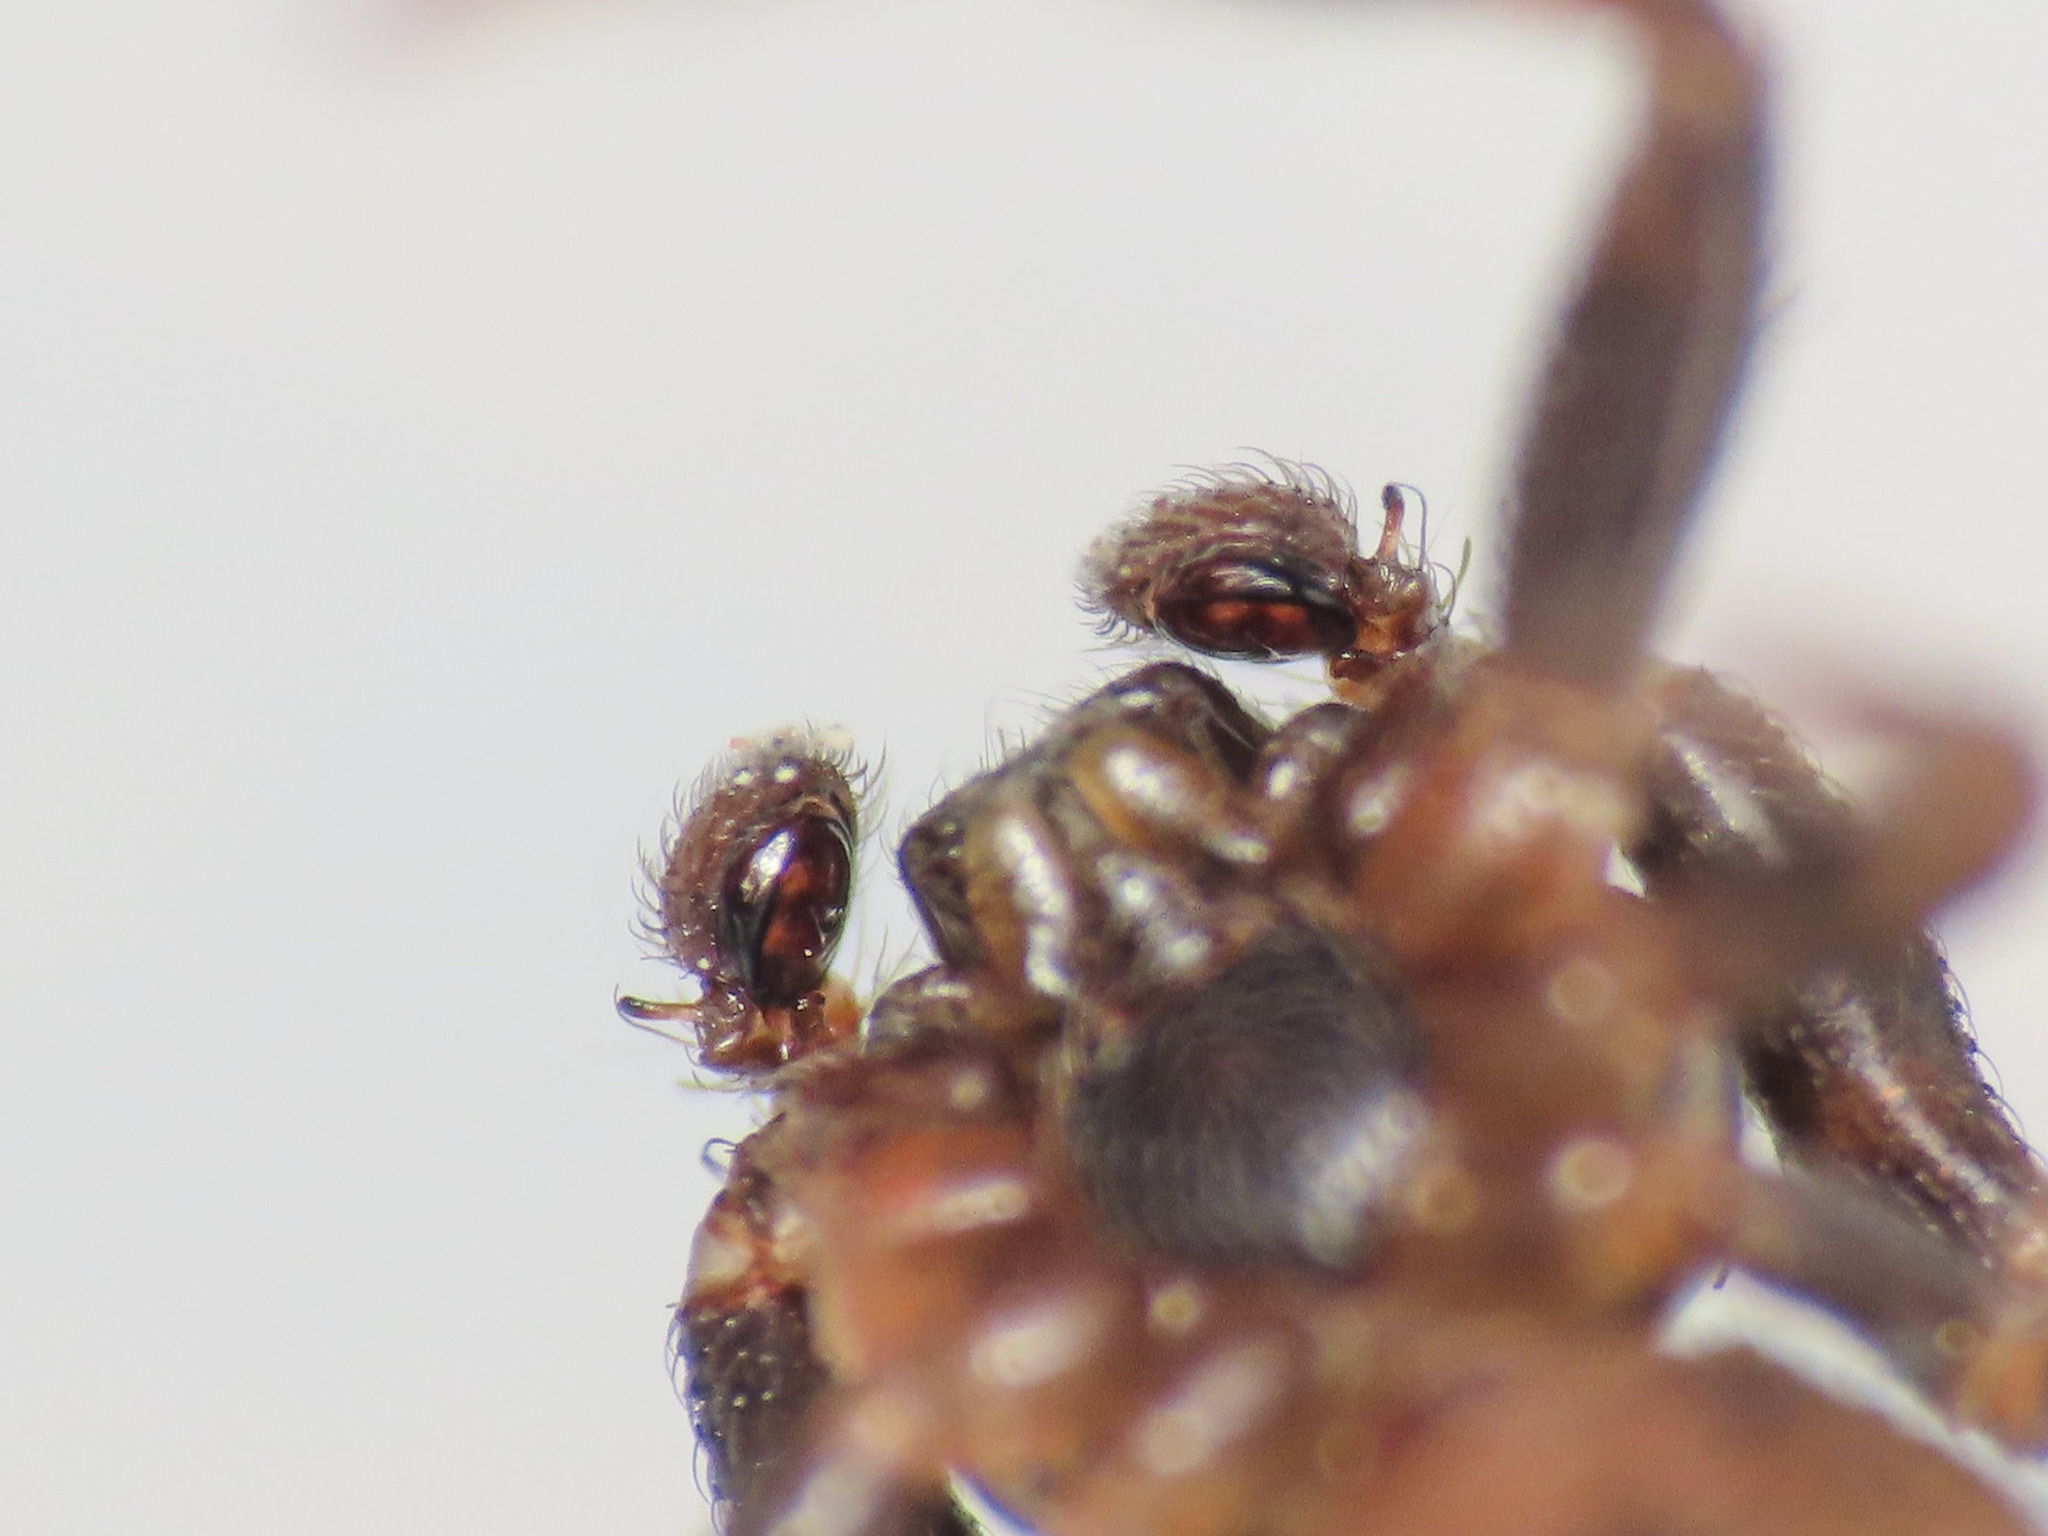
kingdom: Animalia
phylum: Arthropoda
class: Arachnida
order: Araneae
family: Thomisidae
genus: Cozyptila
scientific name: Cozyptila blackwalli
